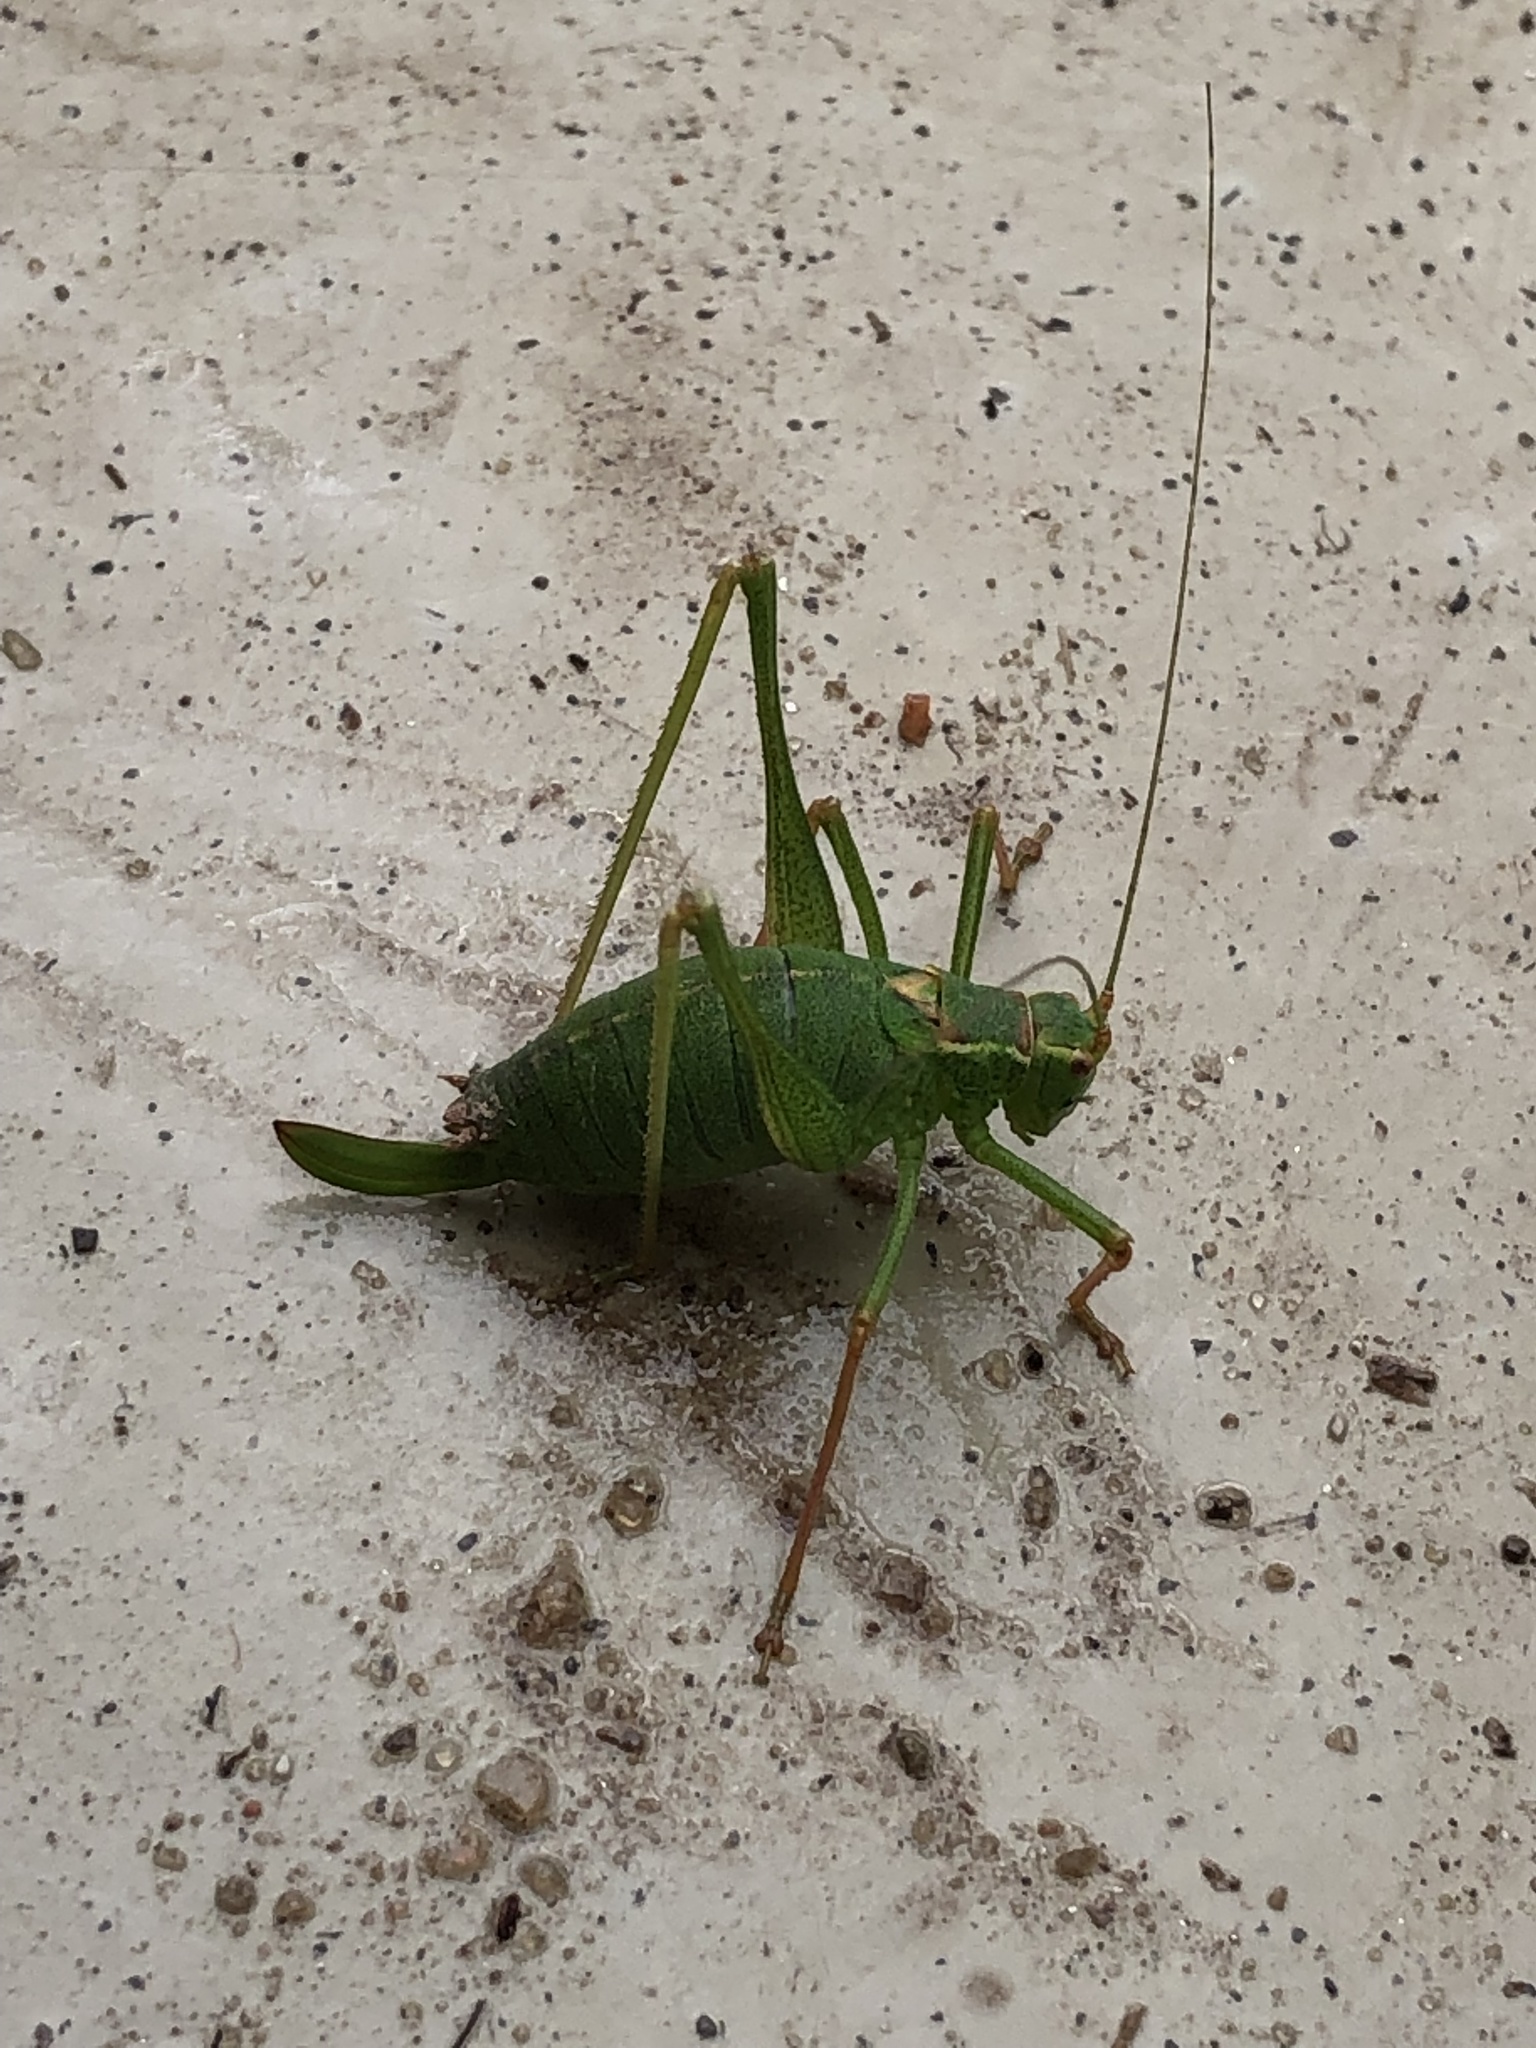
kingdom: Animalia
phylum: Arthropoda
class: Insecta
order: Orthoptera
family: Tettigoniidae
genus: Leptophyes
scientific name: Leptophyes punctatissima
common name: Speckled bush-cricket
